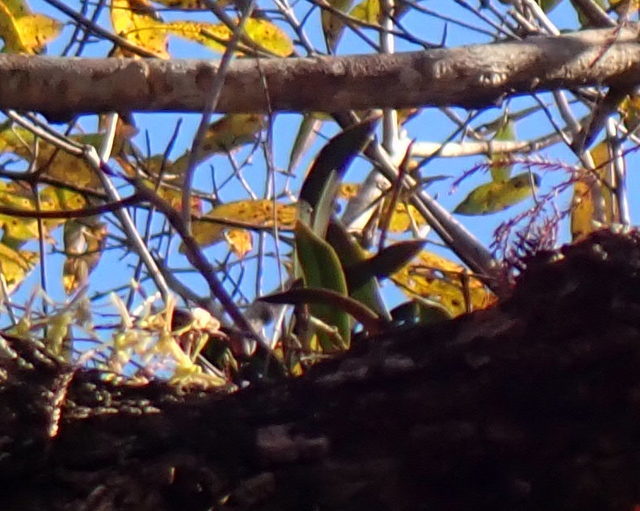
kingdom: Plantae
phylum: Tracheophyta
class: Liliopsida
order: Asparagales
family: Orchidaceae
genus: Epidendrum
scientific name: Epidendrum conopseum
